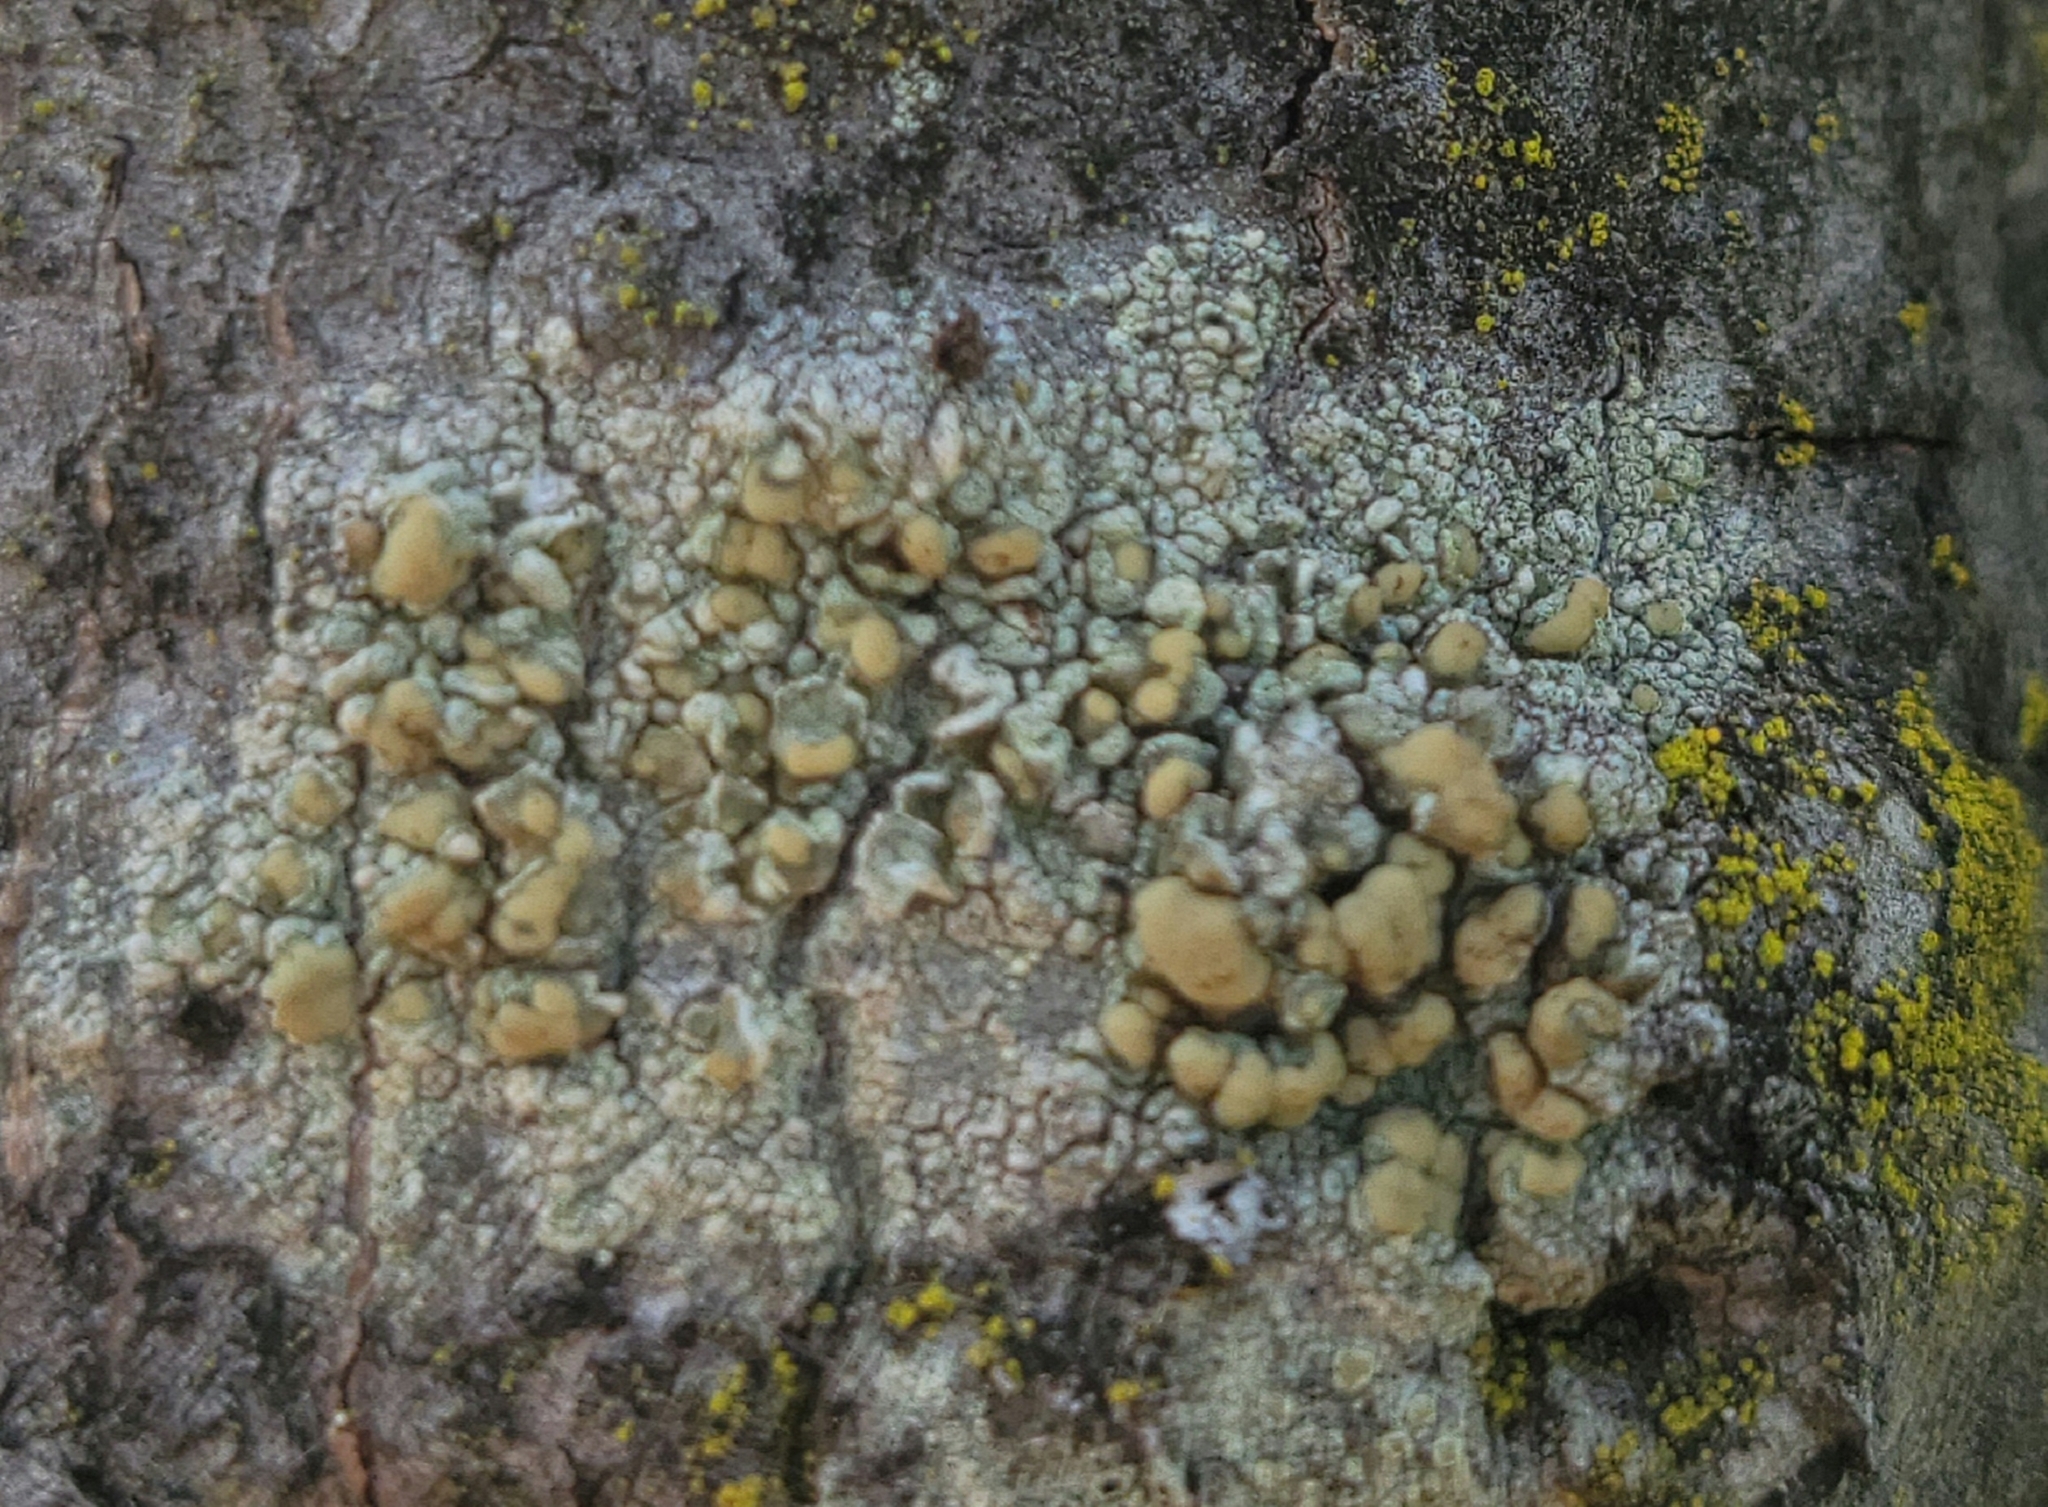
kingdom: Fungi
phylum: Ascomycota
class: Lecanoromycetes
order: Lecanorales
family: Lecanoraceae
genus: Lecanora
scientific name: Lecanora symmicta
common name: Fused rim lichen
